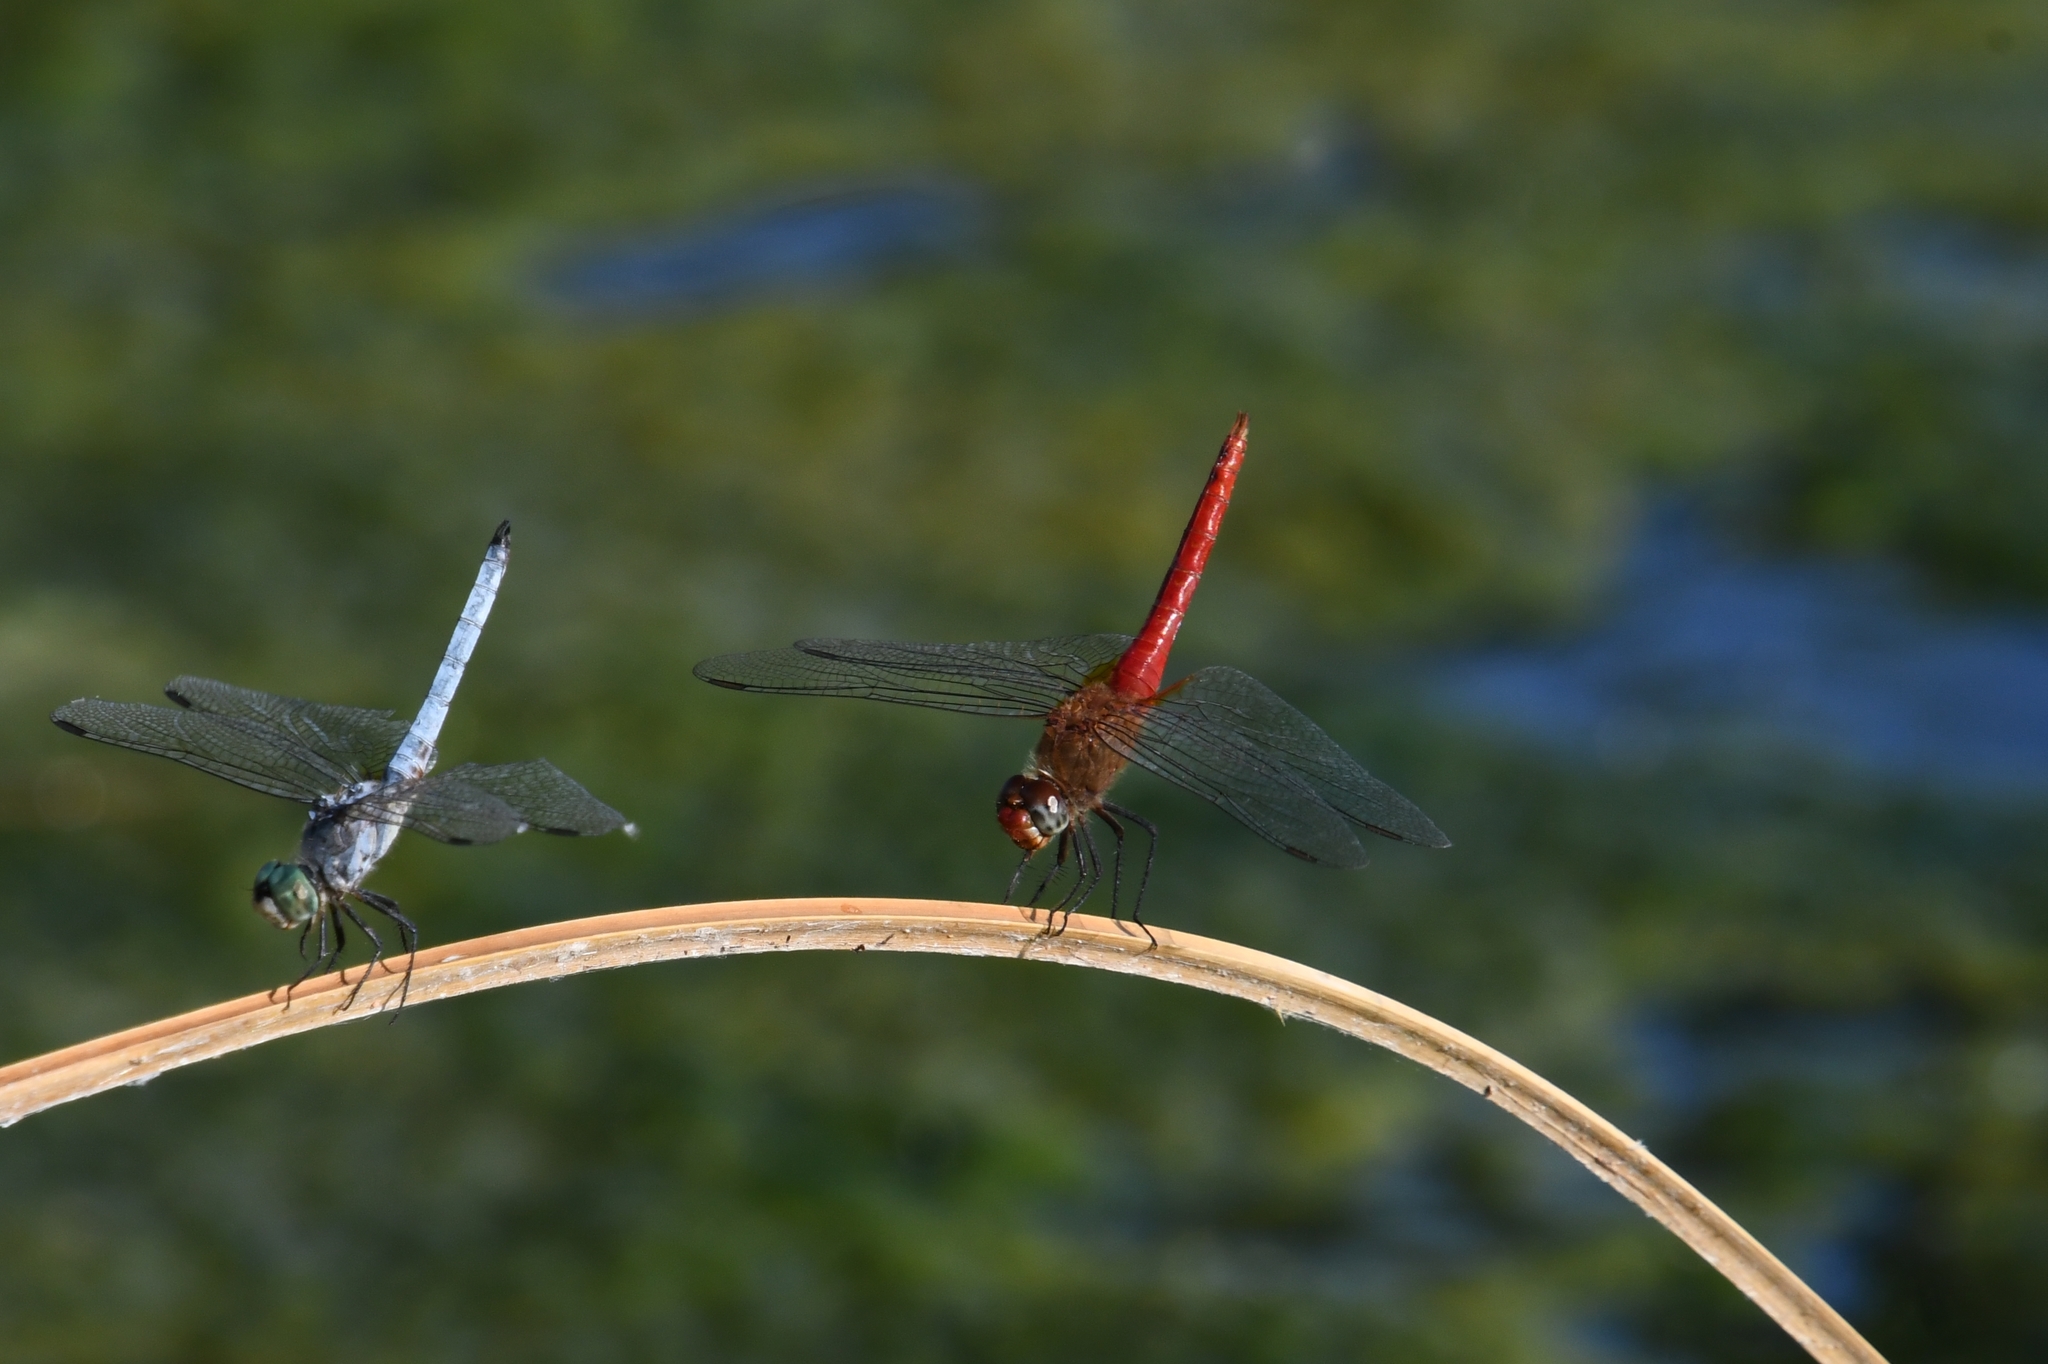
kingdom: Animalia
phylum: Arthropoda
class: Insecta
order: Odonata
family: Libellulidae
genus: Brachymesia
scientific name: Brachymesia furcata
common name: Red-taled pennant
